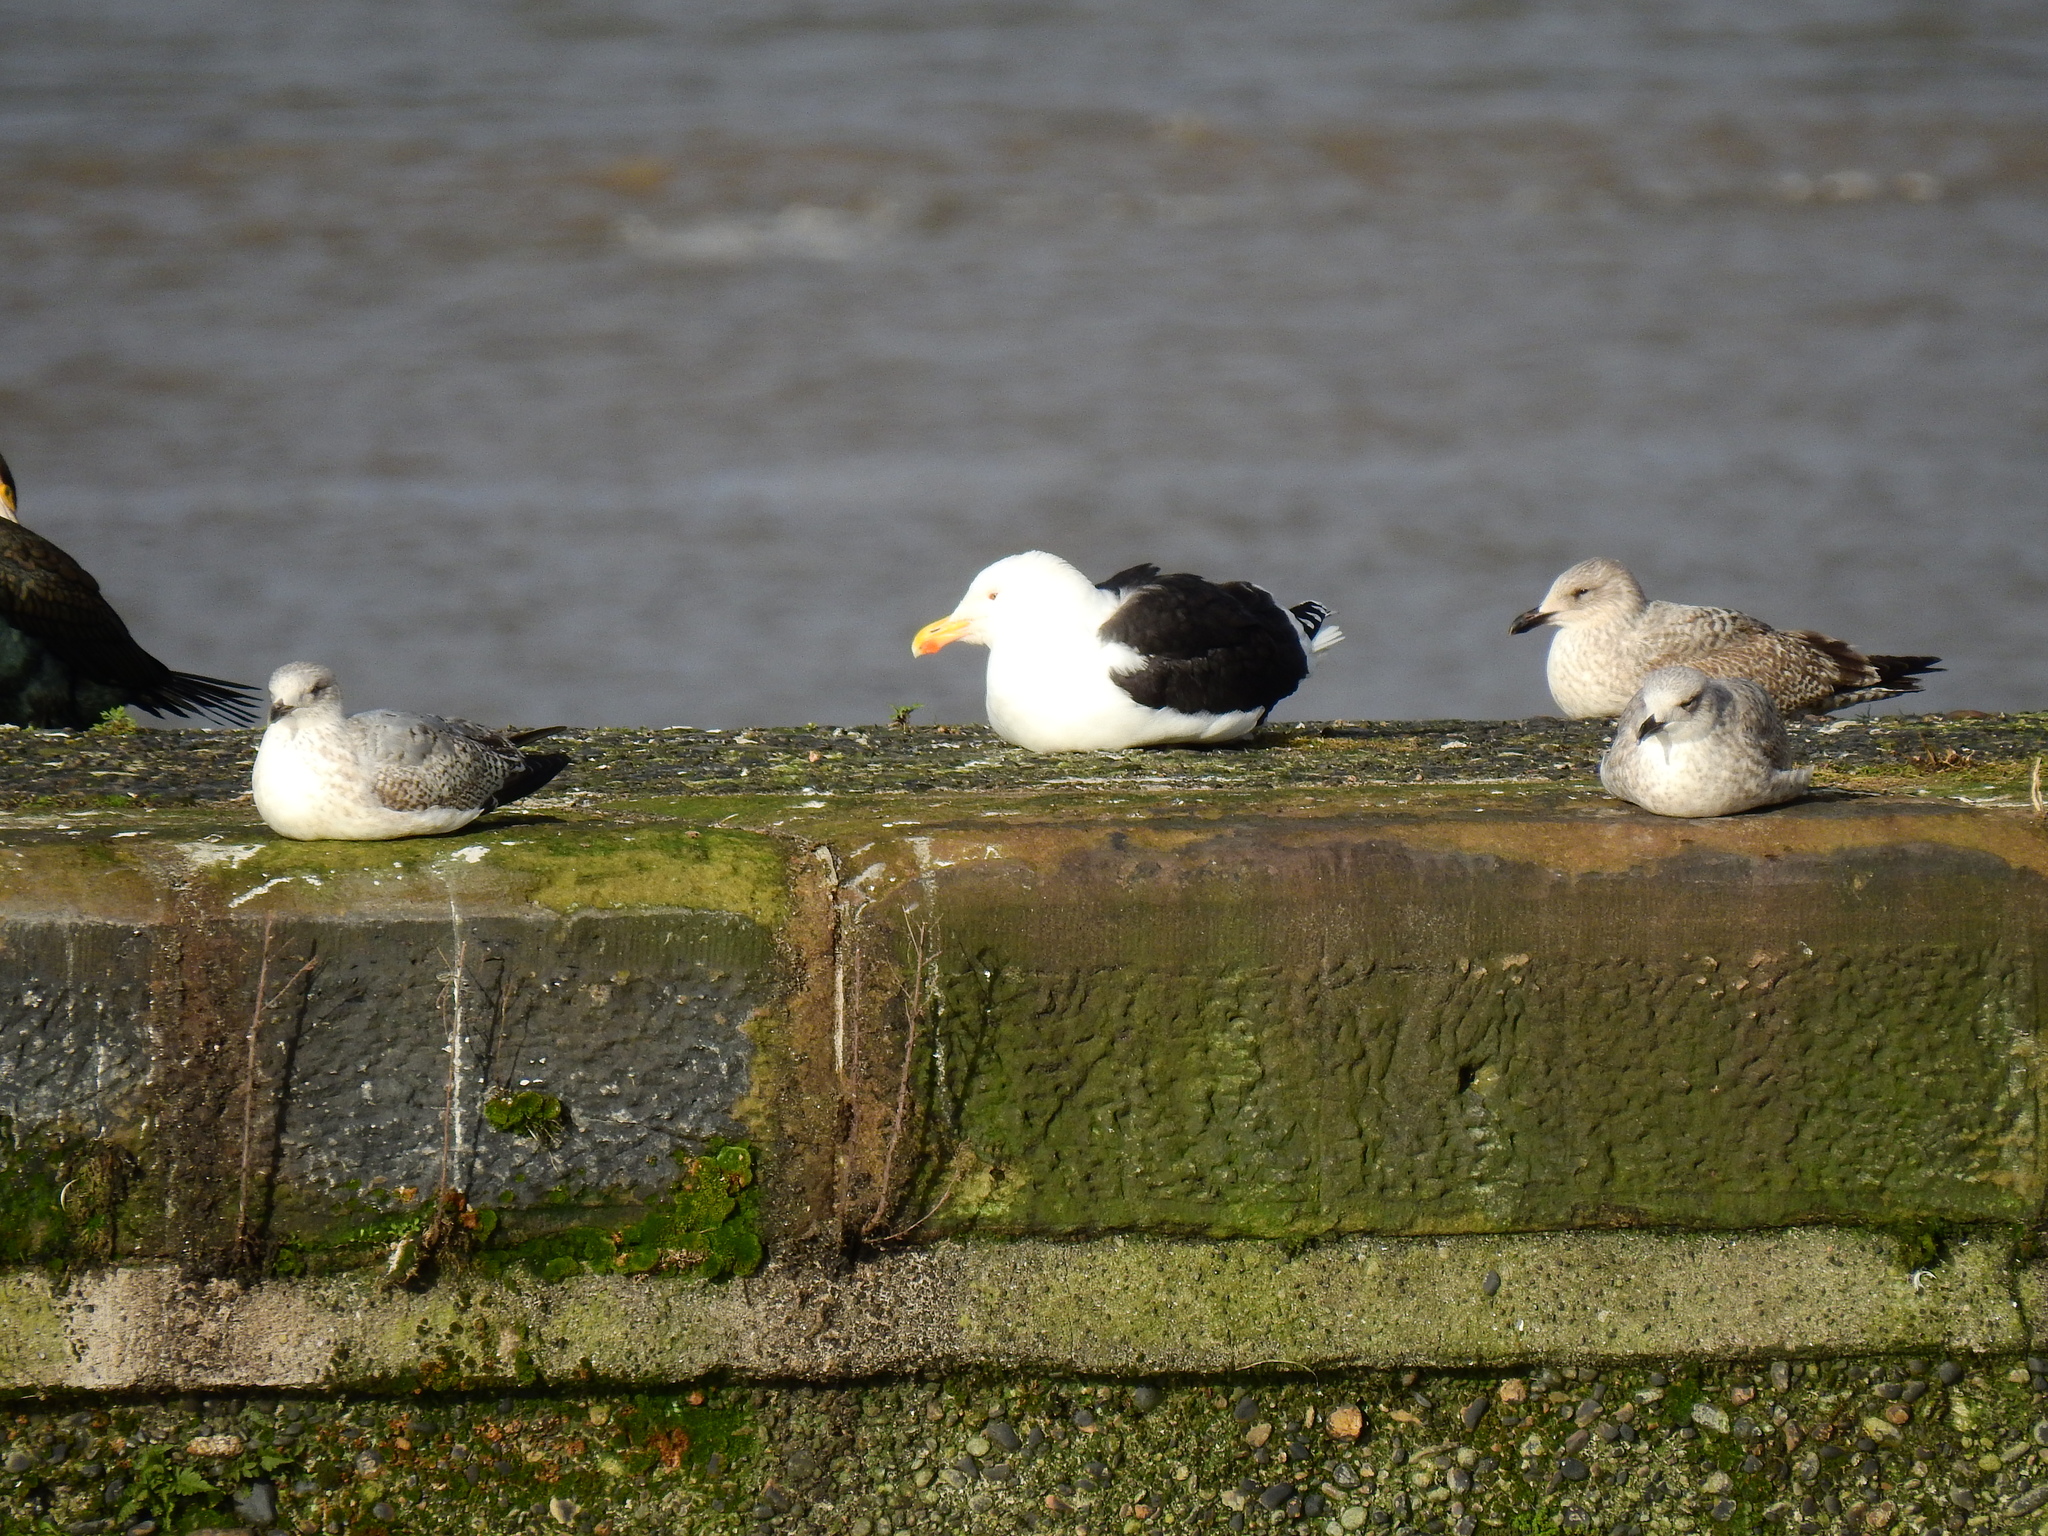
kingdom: Animalia
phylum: Chordata
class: Aves
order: Charadriiformes
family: Laridae
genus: Larus
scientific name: Larus marinus
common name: Great black-backed gull
